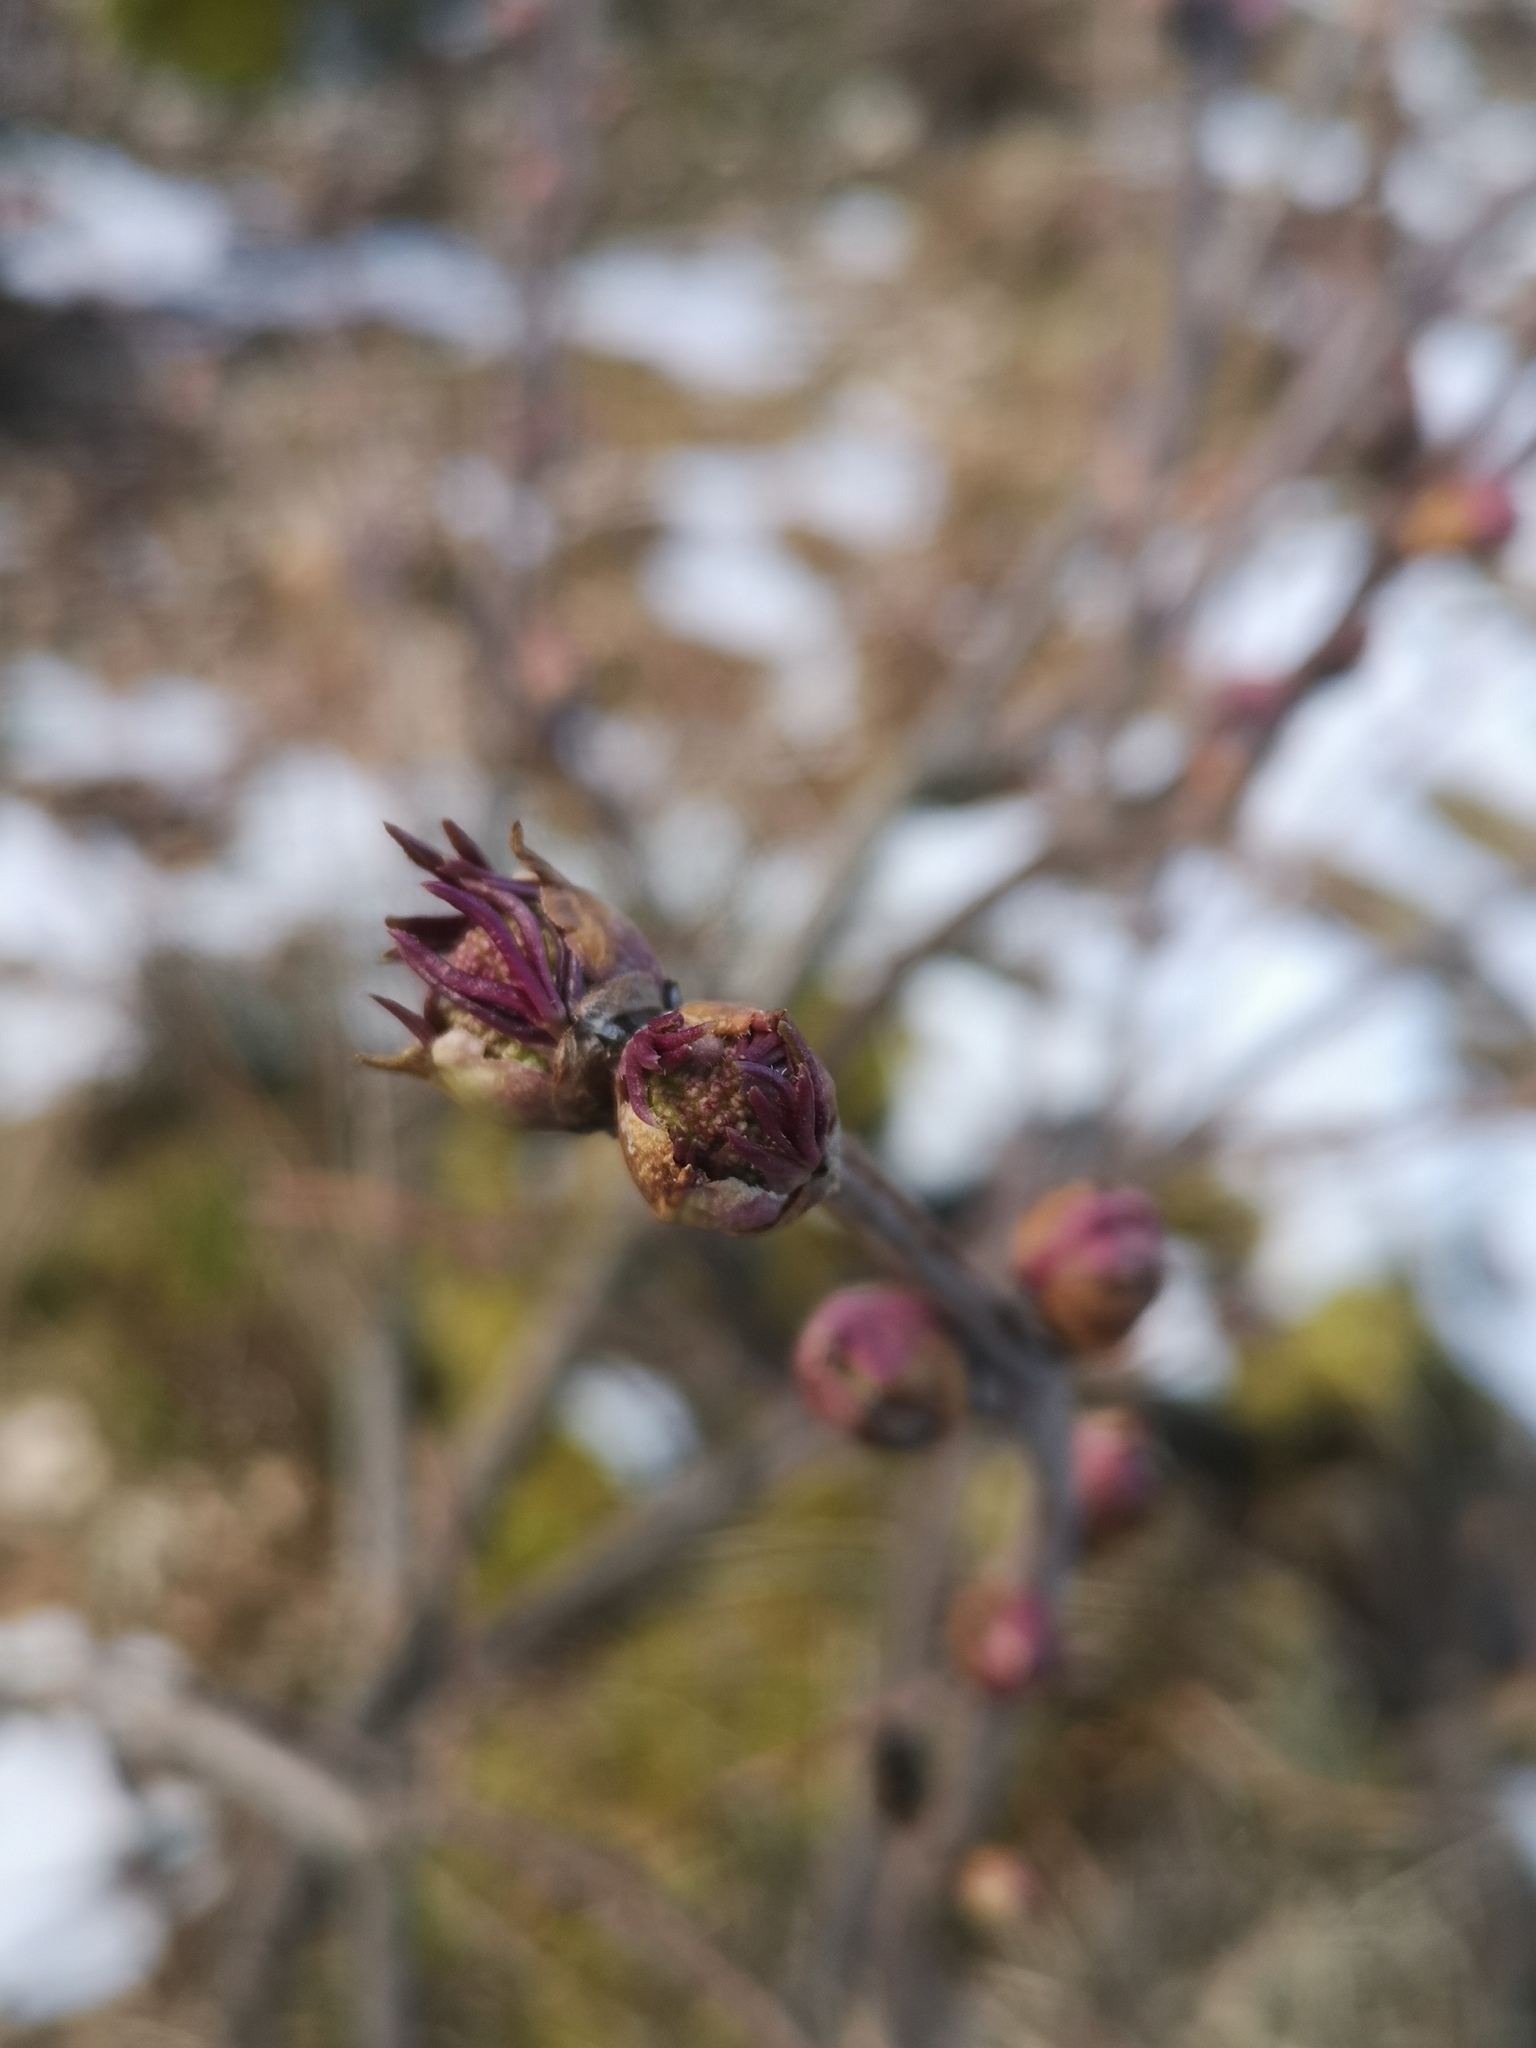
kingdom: Plantae
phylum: Tracheophyta
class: Magnoliopsida
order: Dipsacales
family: Viburnaceae
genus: Sambucus
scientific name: Sambucus racemosa
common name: Red-berried elder
